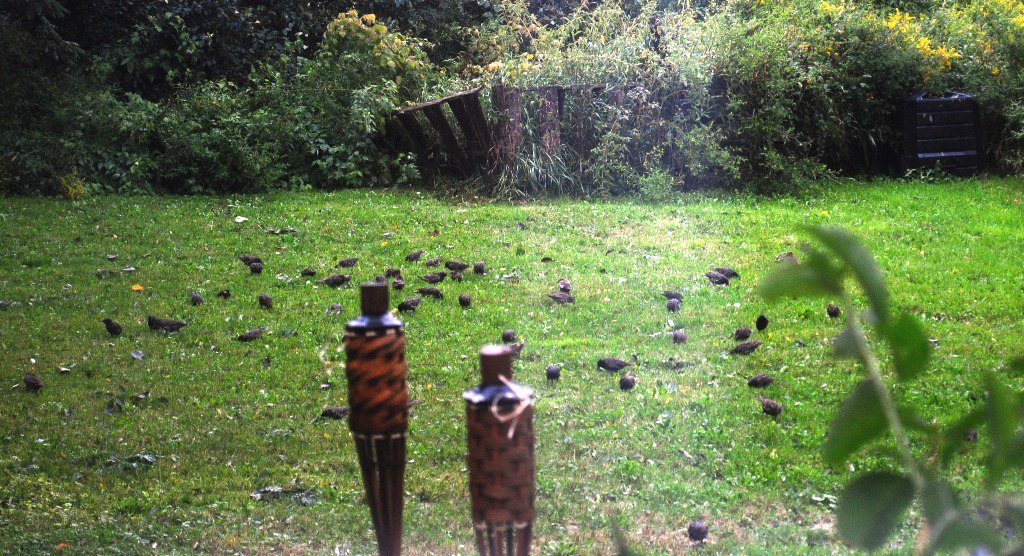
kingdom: Animalia
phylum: Chordata
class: Aves
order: Passeriformes
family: Sturnidae
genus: Sturnus
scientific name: Sturnus vulgaris
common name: Common starling
